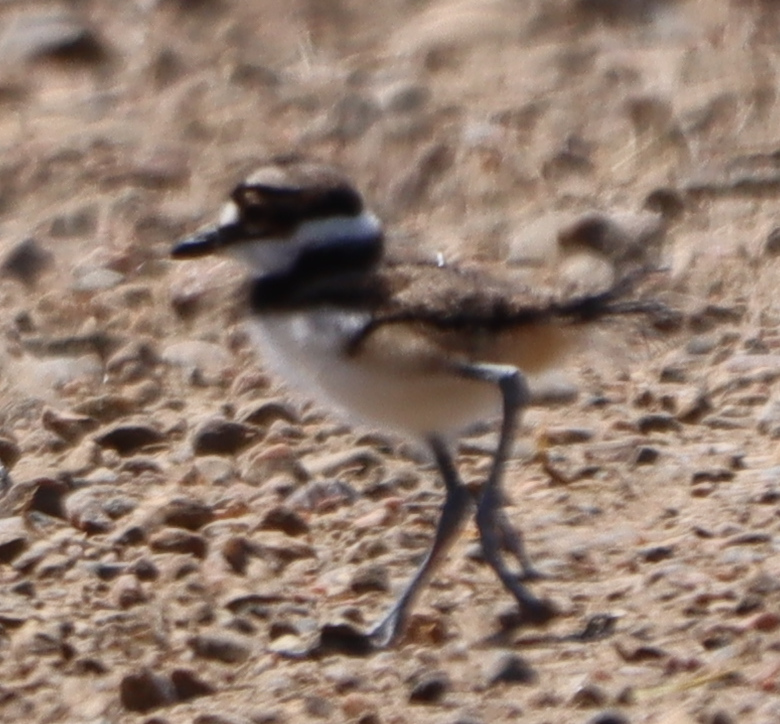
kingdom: Animalia
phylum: Chordata
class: Aves
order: Charadriiformes
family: Charadriidae
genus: Charadrius
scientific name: Charadrius vociferus
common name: Killdeer
